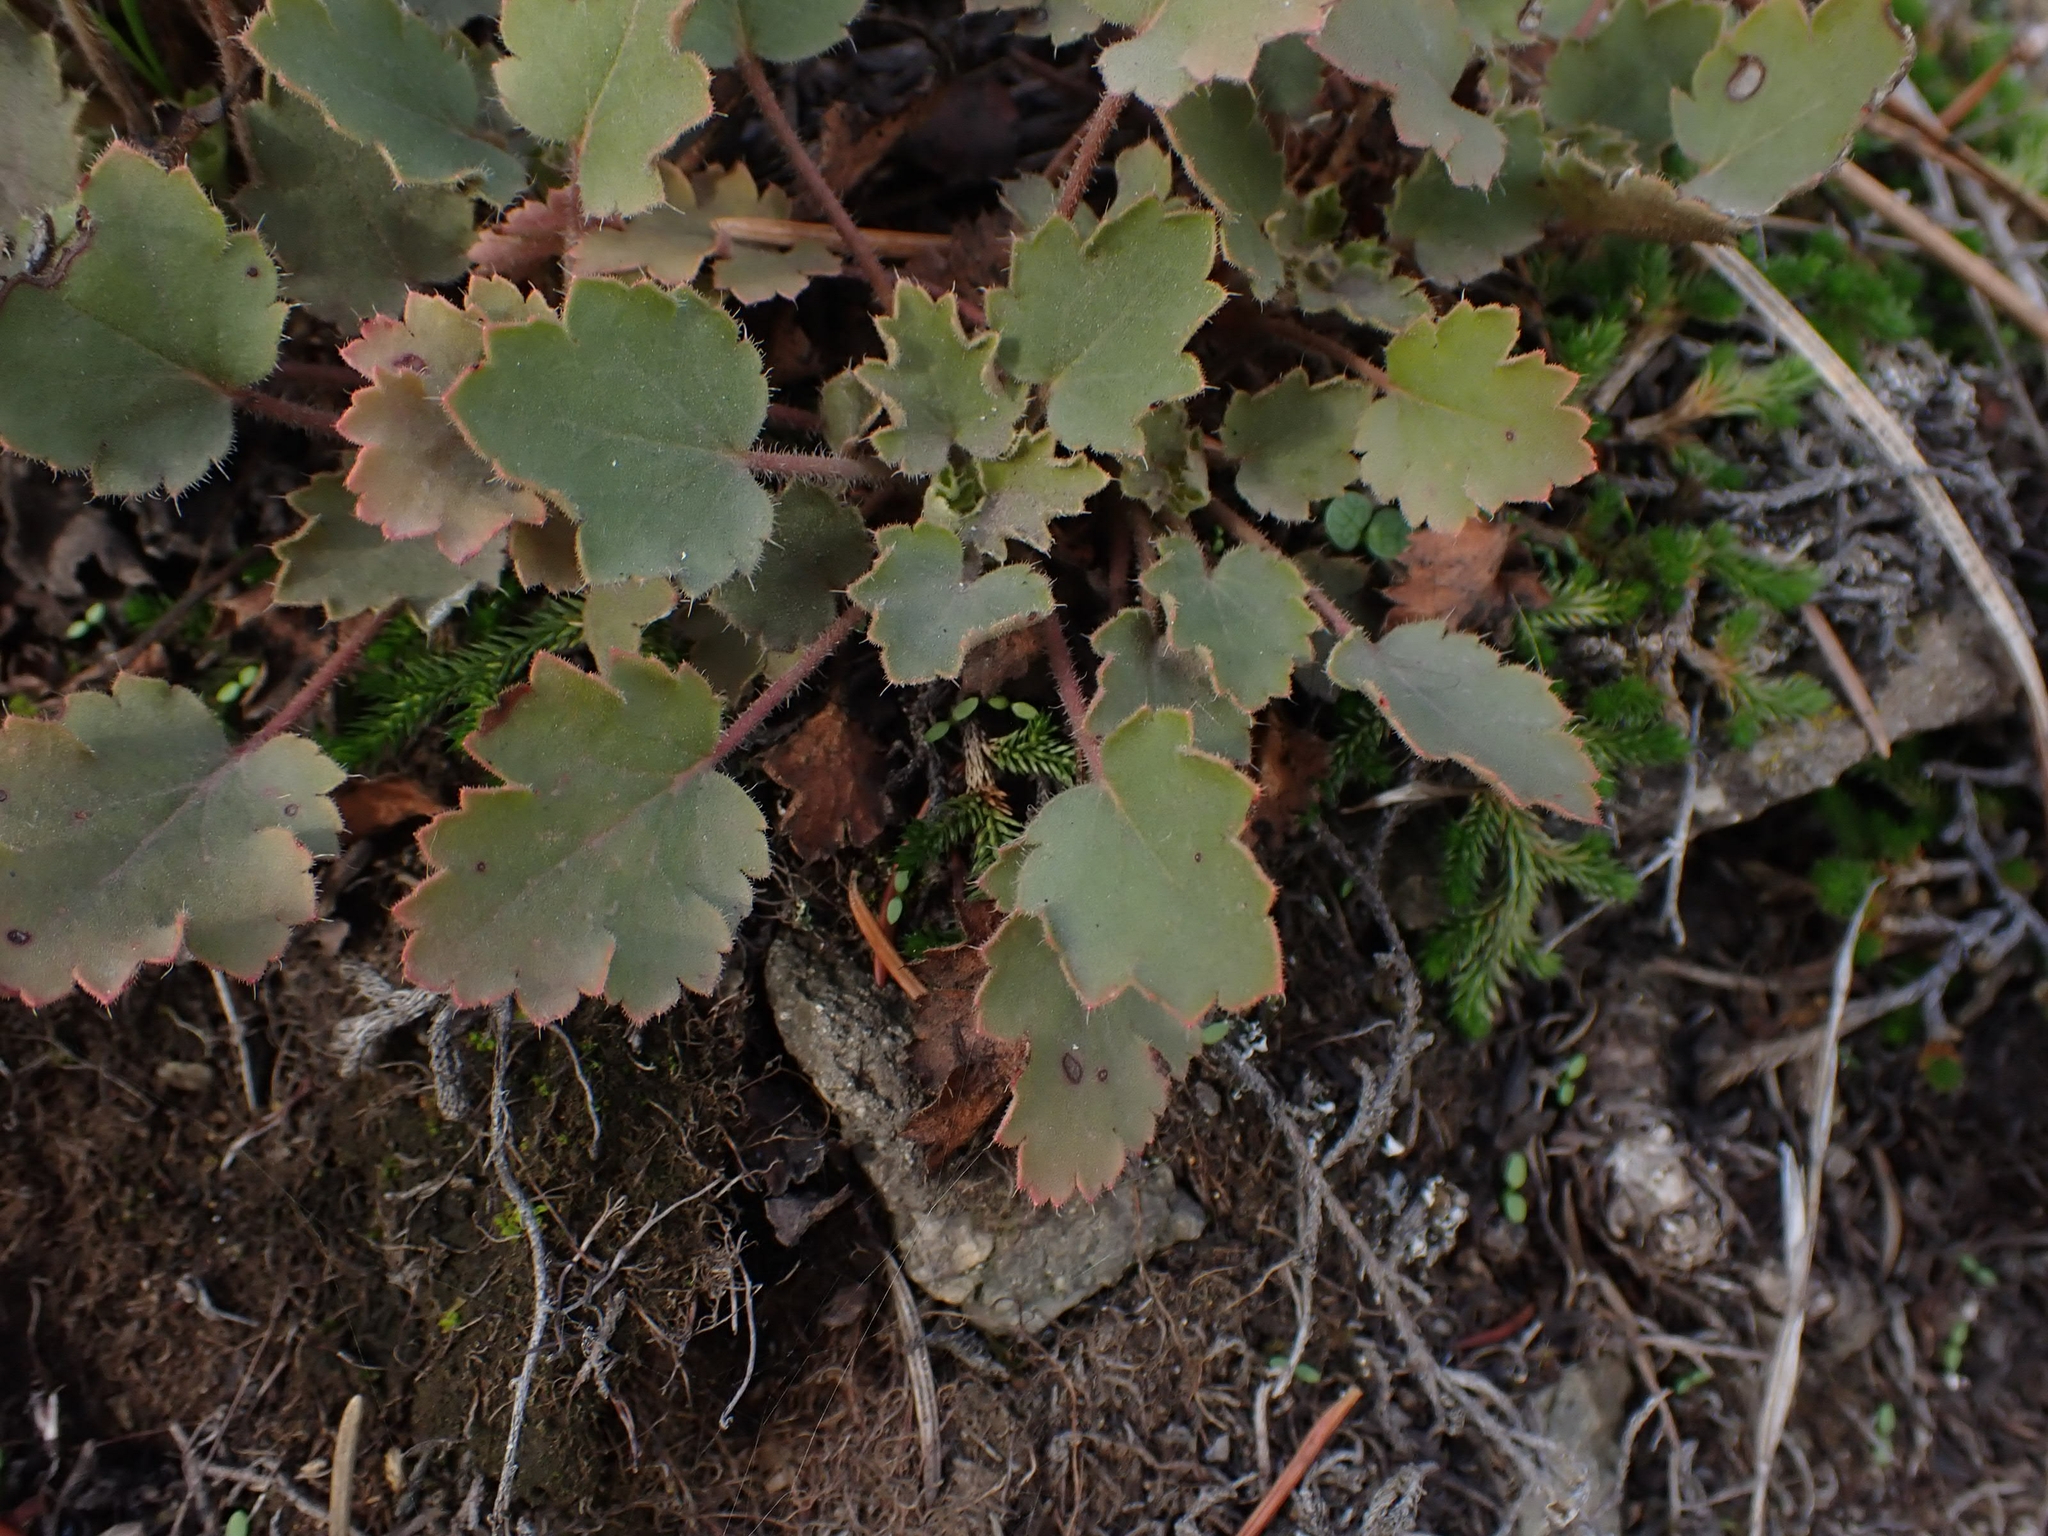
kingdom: Plantae
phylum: Tracheophyta
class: Magnoliopsida
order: Saxifragales
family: Saxifragaceae
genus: Heuchera
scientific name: Heuchera cylindrica
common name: Mat alumroot
